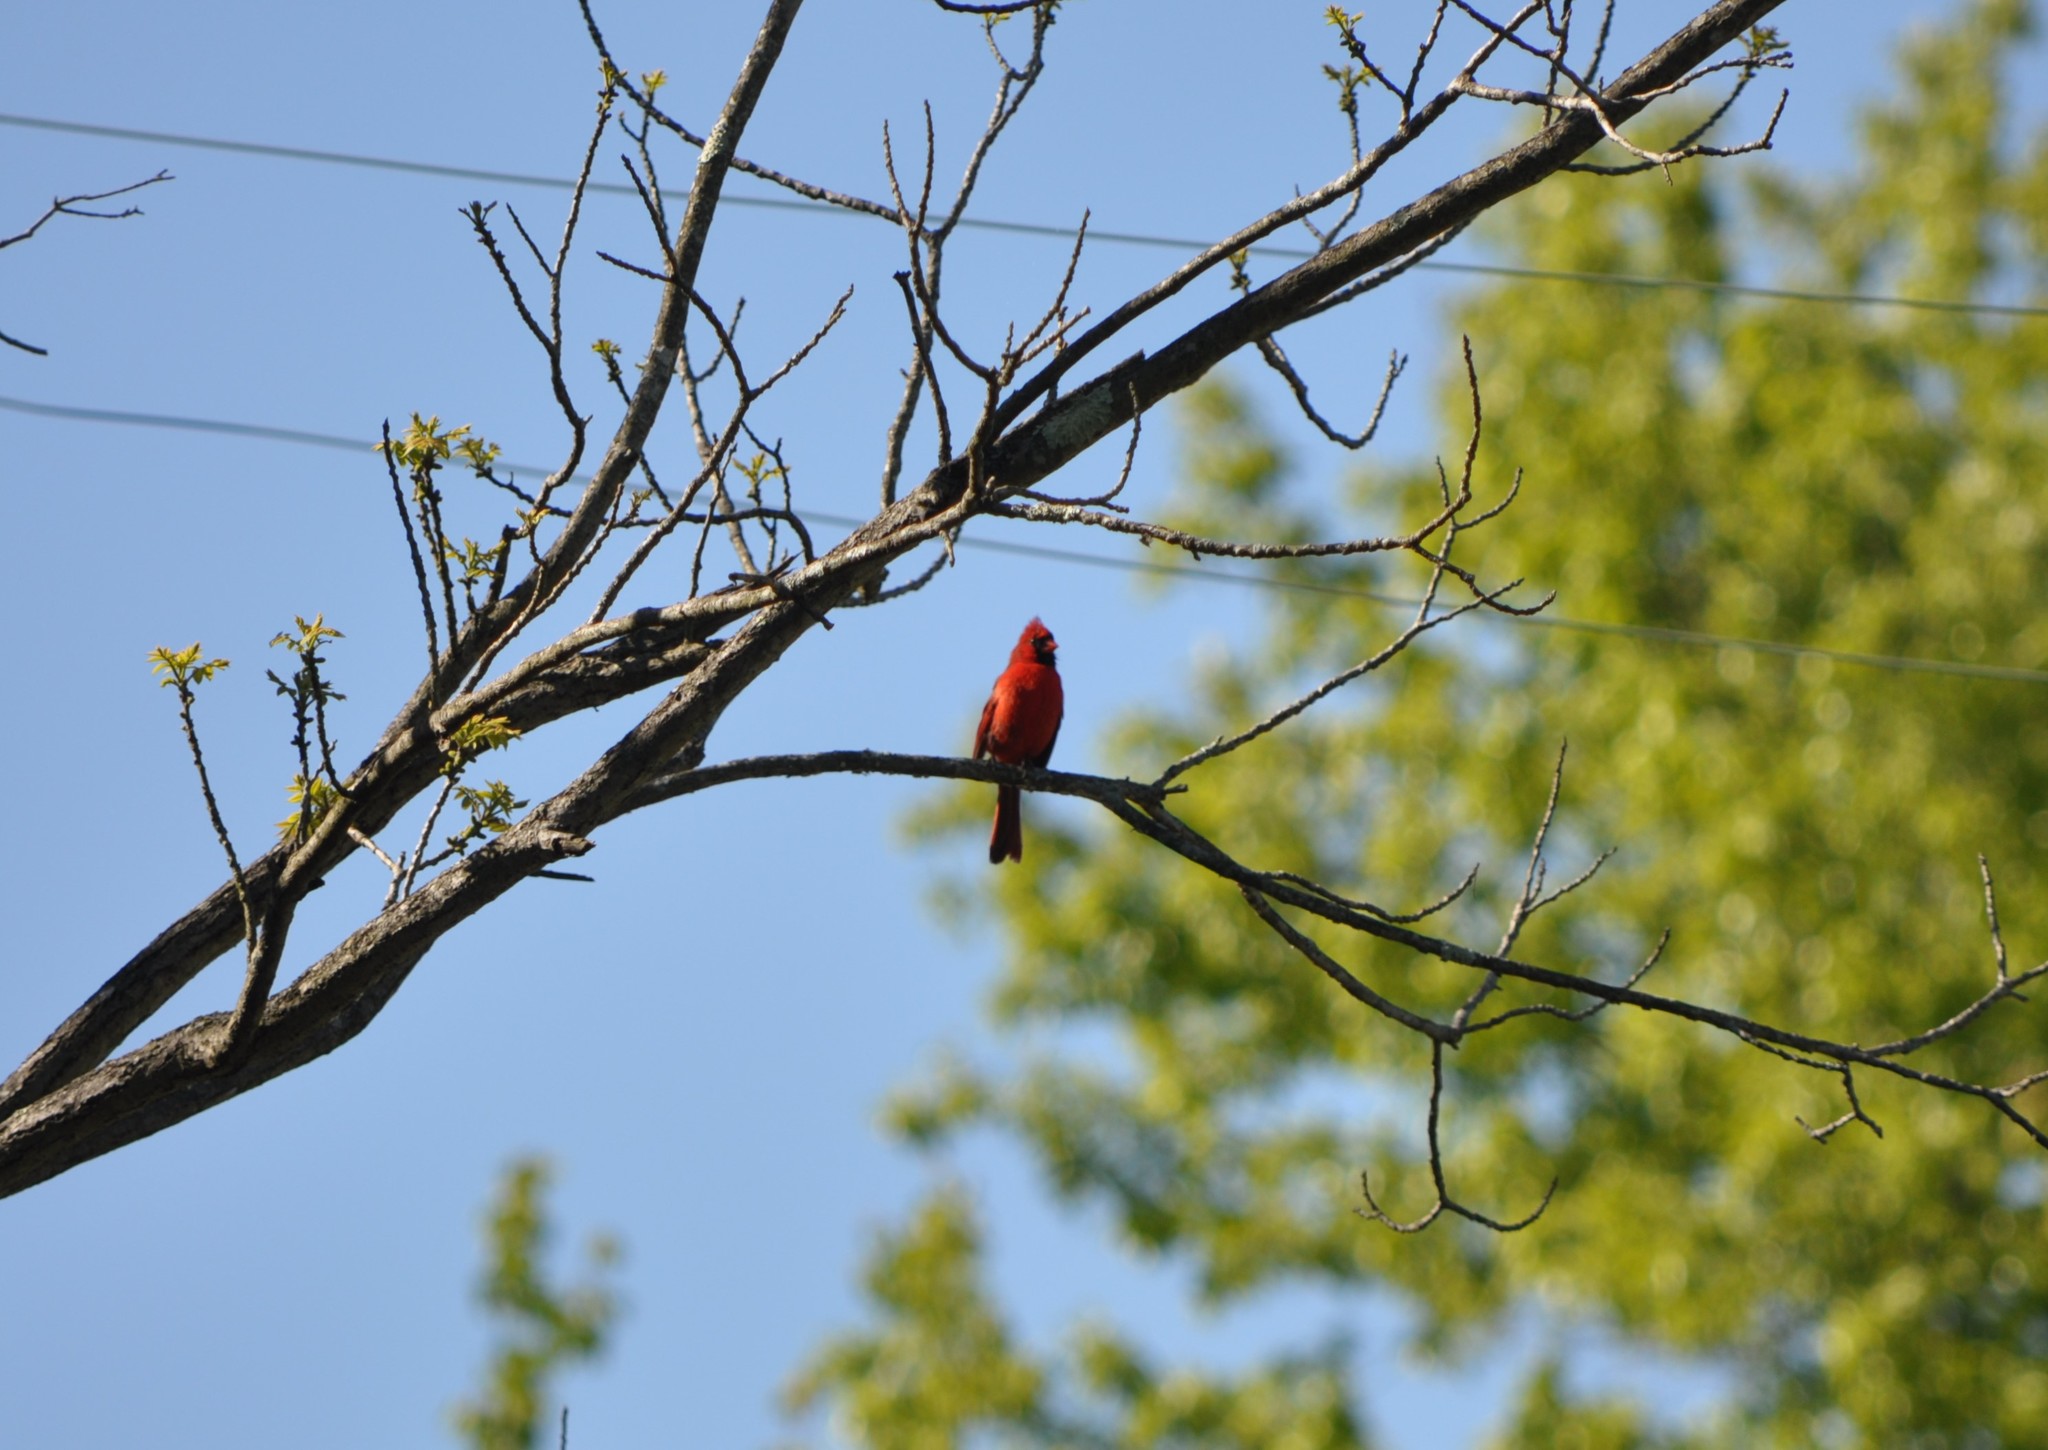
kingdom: Animalia
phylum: Chordata
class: Aves
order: Passeriformes
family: Cardinalidae
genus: Cardinalis
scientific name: Cardinalis cardinalis
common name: Northern cardinal
